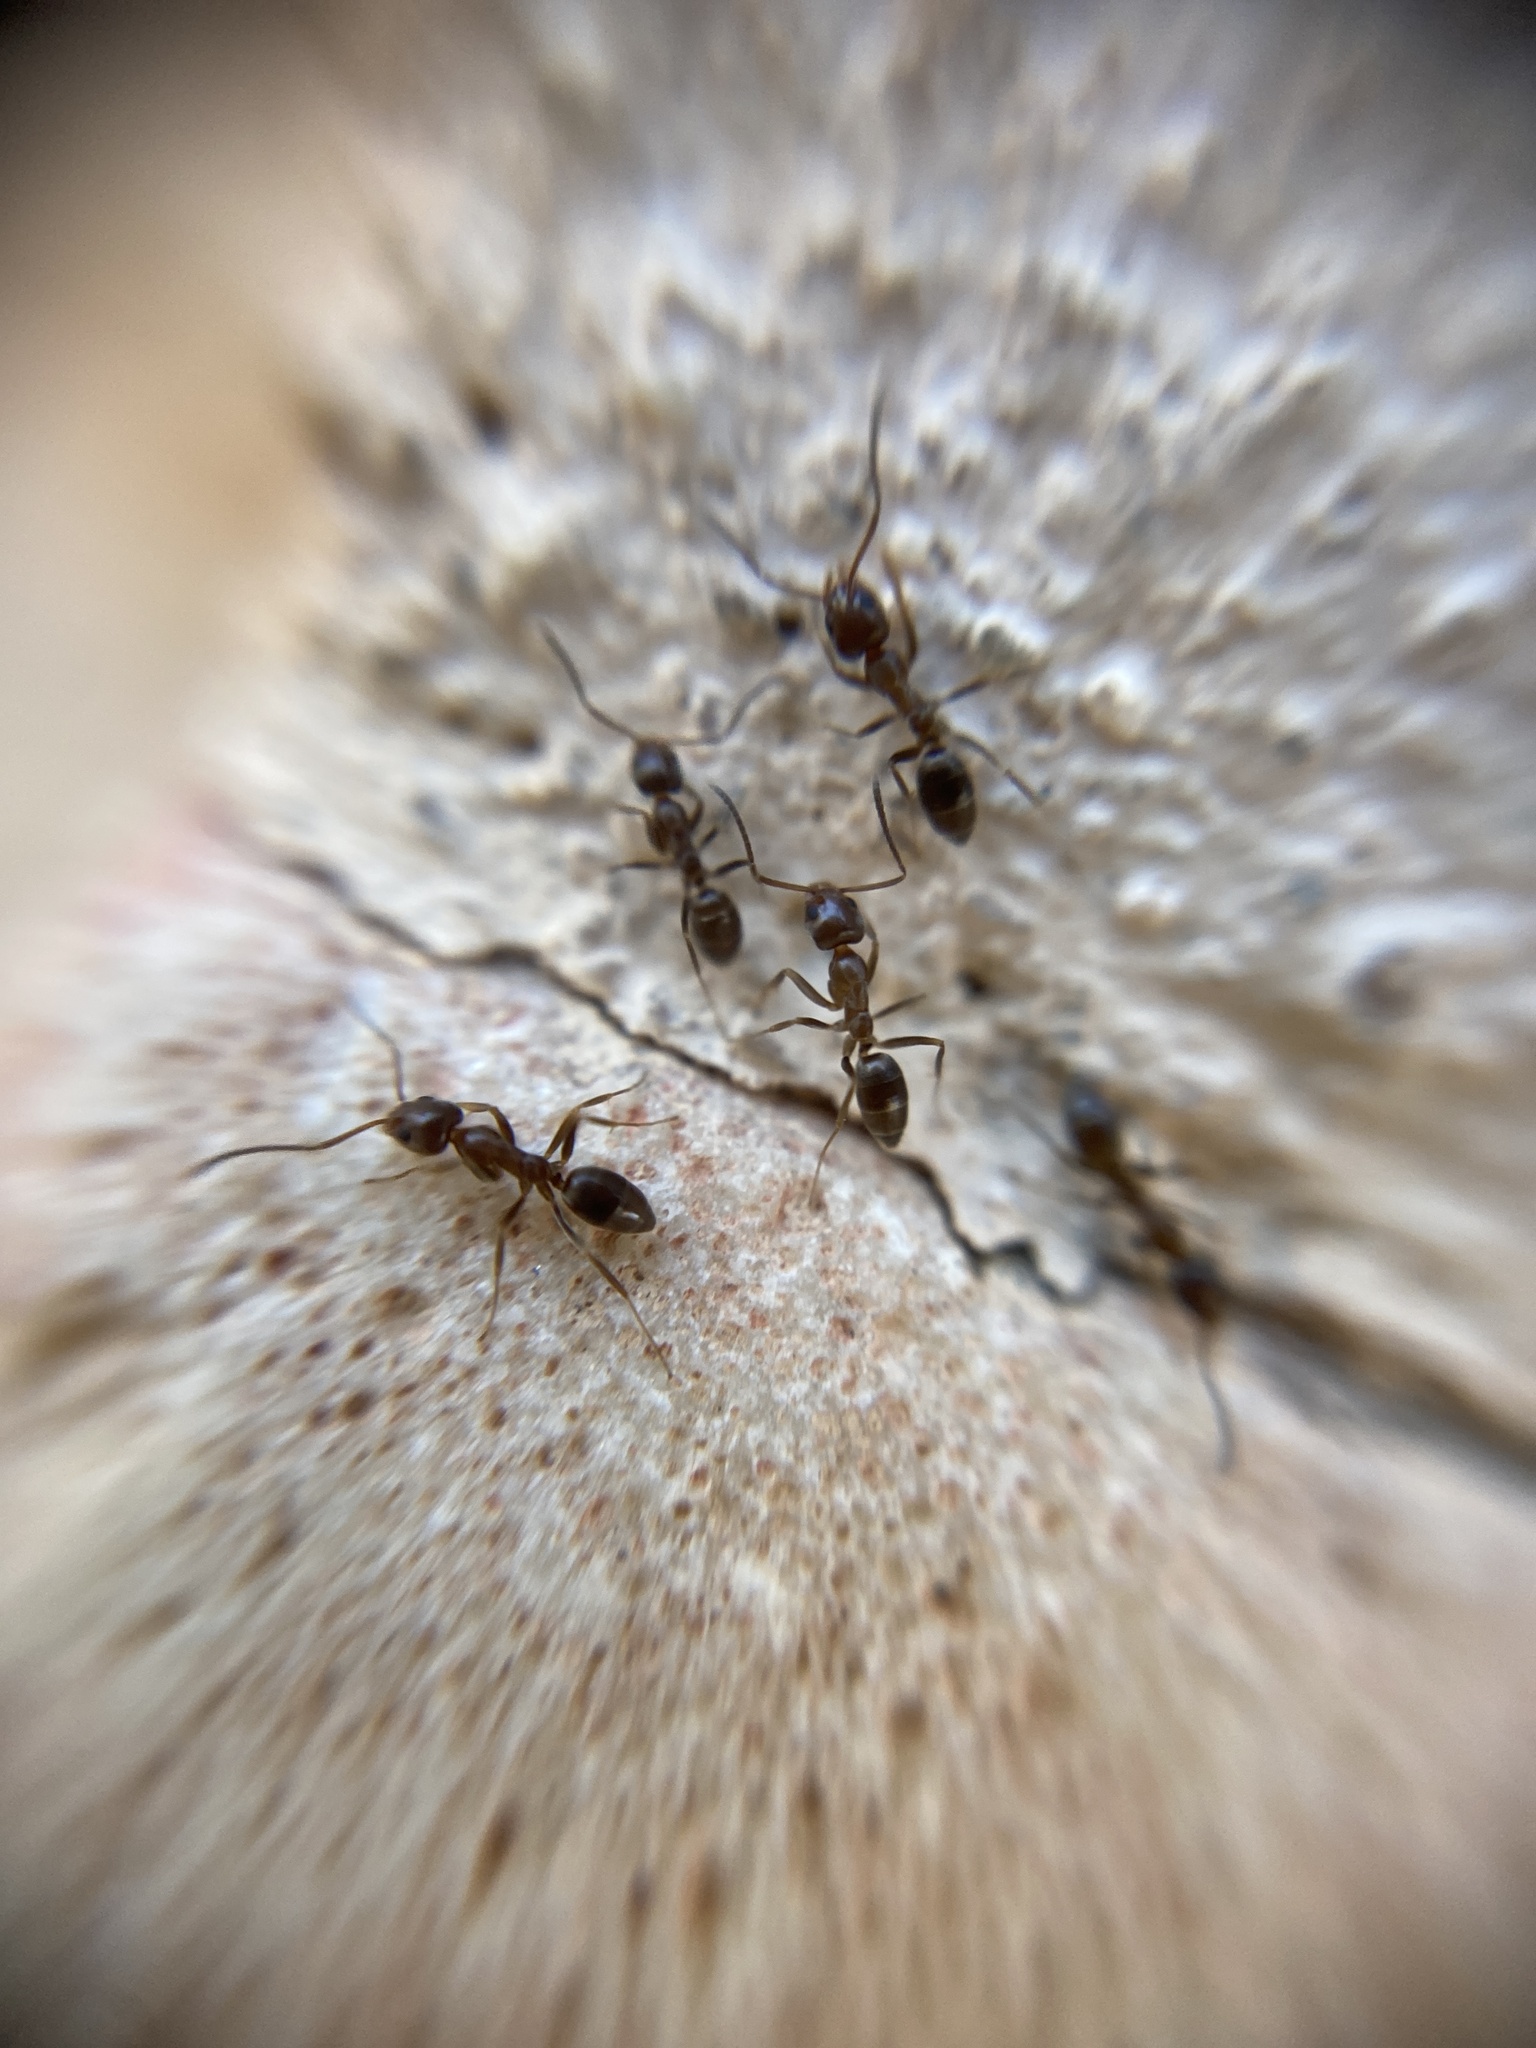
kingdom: Animalia
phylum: Arthropoda
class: Insecta
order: Hymenoptera
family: Formicidae
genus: Linepithema
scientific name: Linepithema humile
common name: Argentine ant
